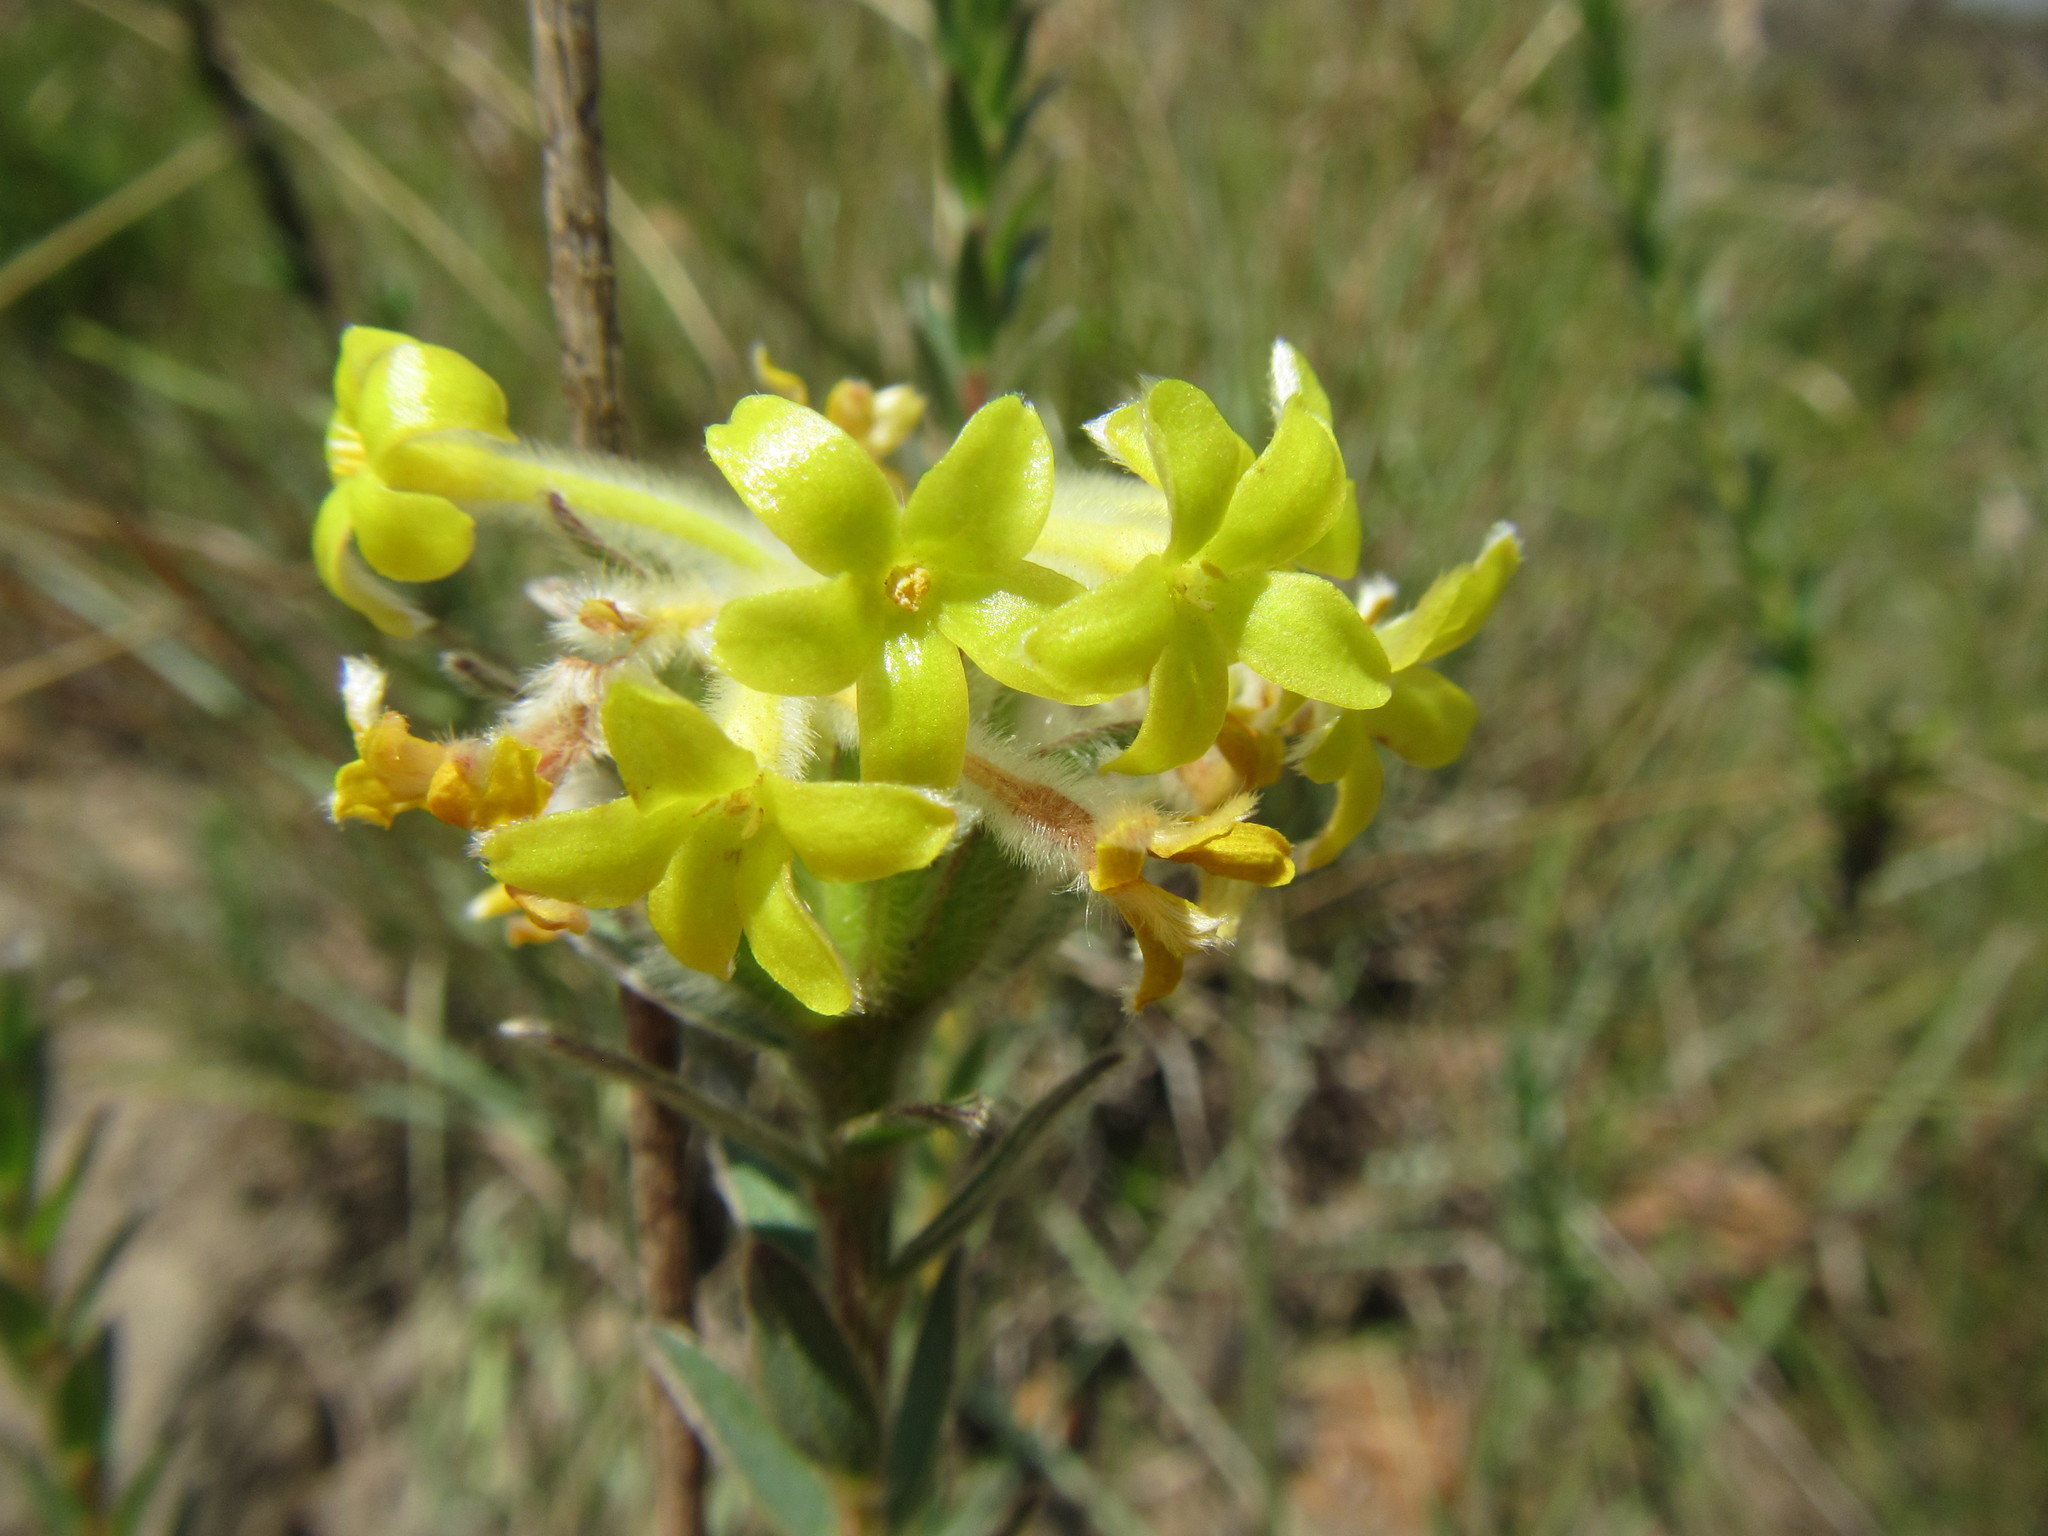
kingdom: Plantae
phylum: Tracheophyta
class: Magnoliopsida
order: Malvales
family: Thymelaeaceae
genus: Gnidia
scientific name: Gnidia anthylloides
